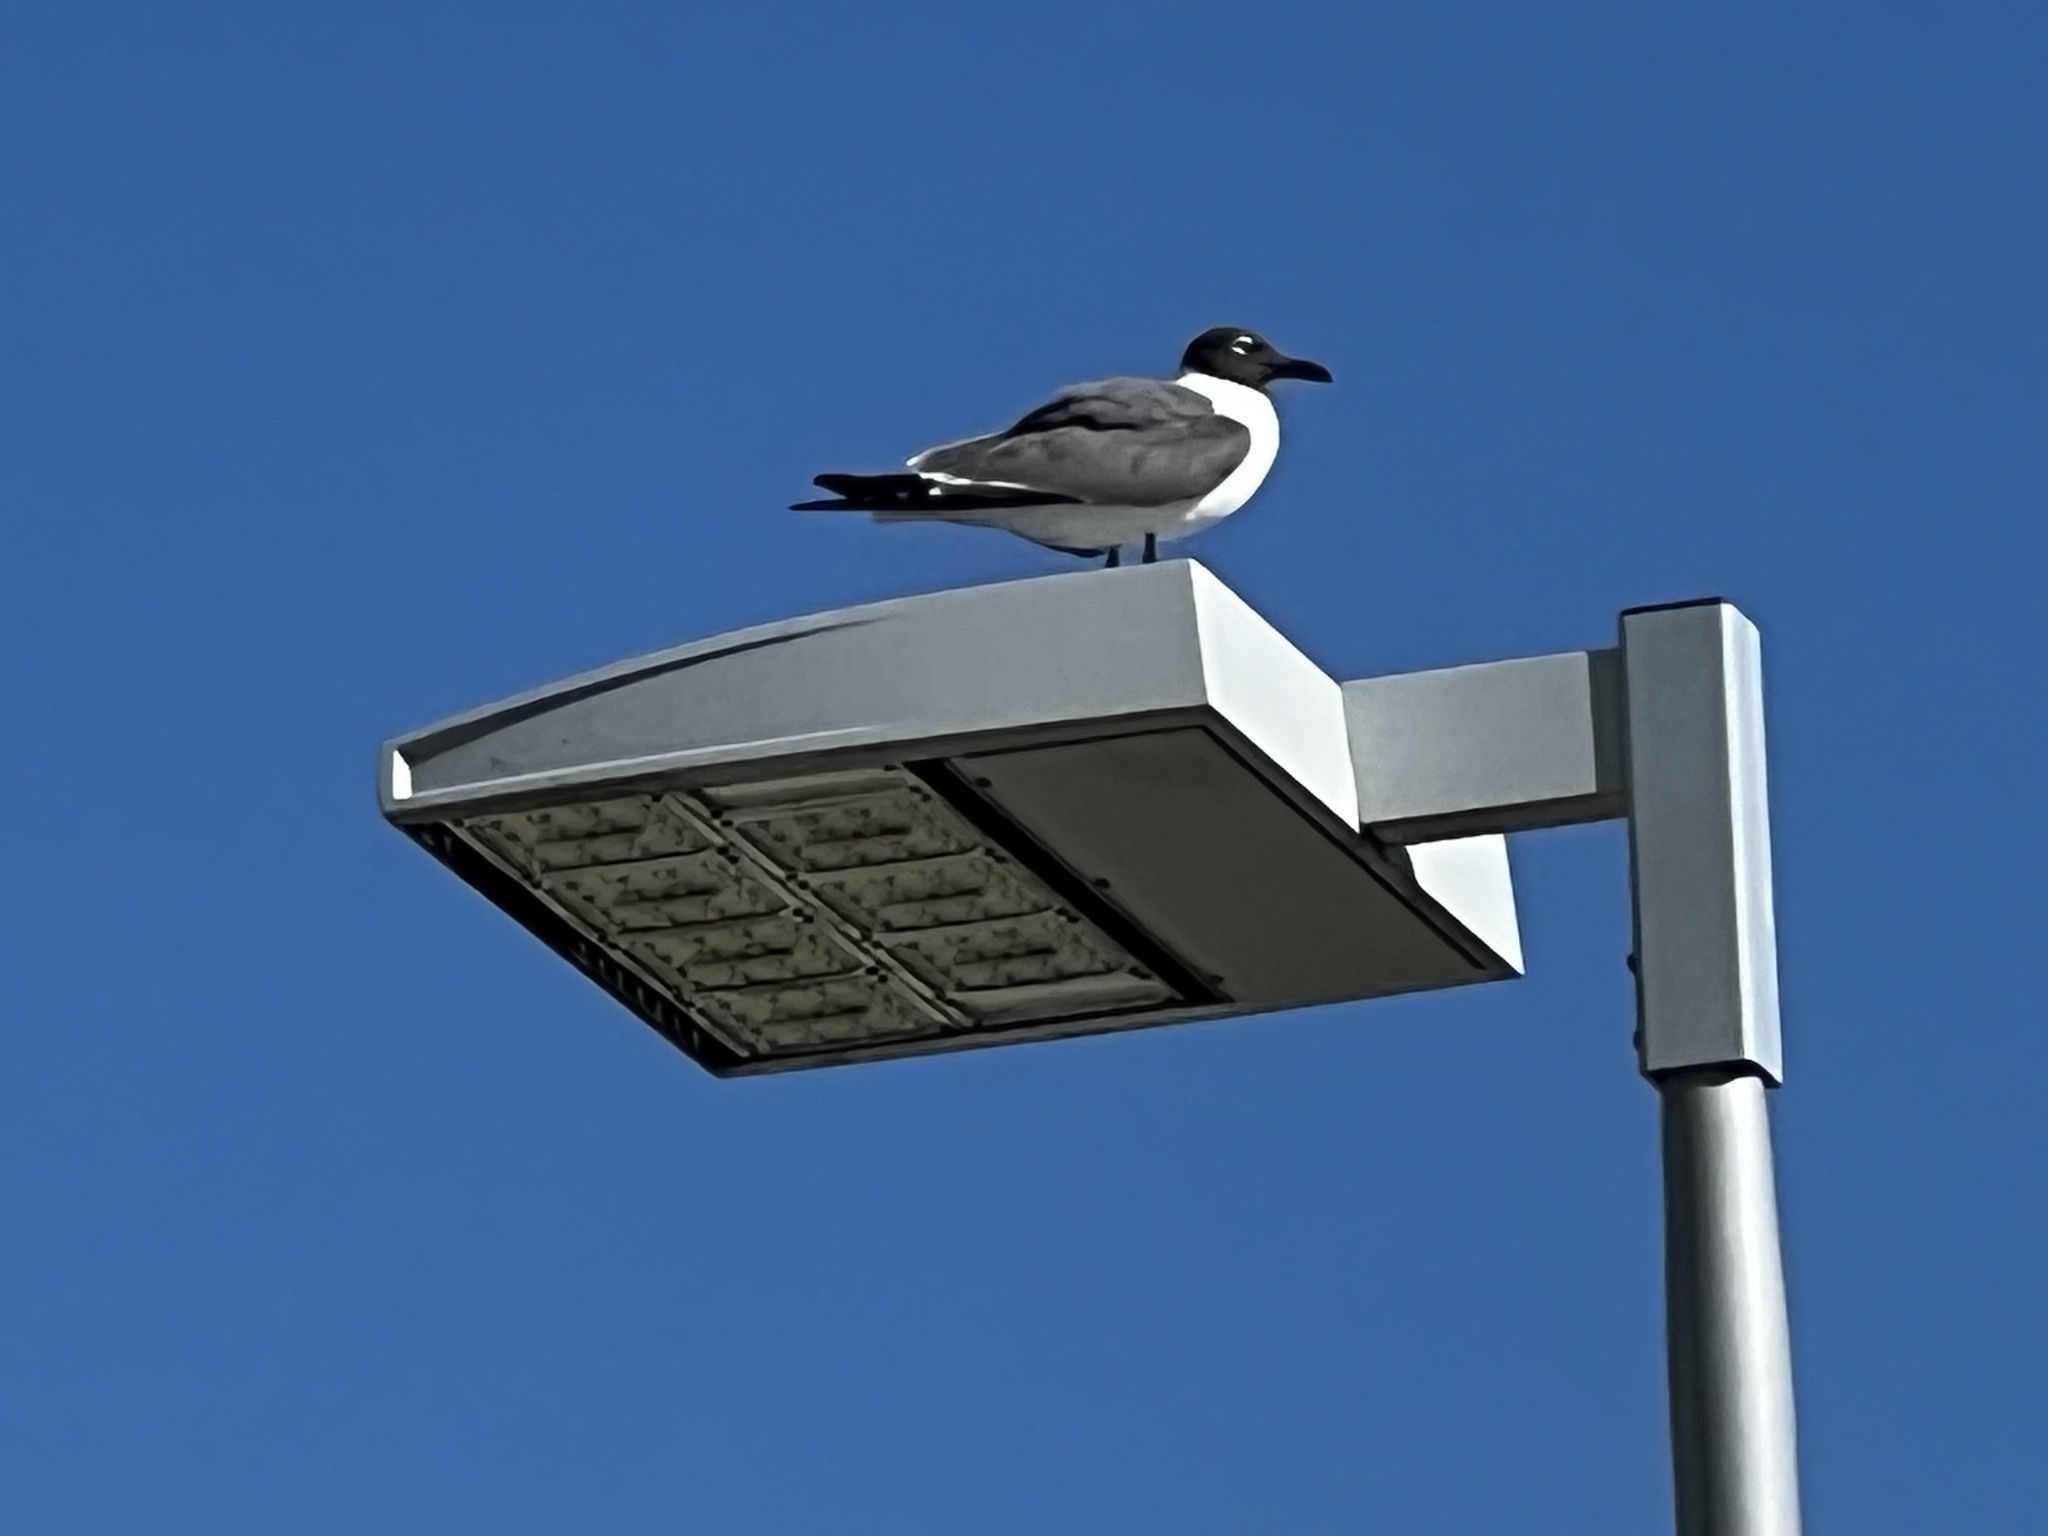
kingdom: Animalia
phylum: Chordata
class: Aves
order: Charadriiformes
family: Laridae
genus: Leucophaeus
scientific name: Leucophaeus atricilla
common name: Laughing gull
